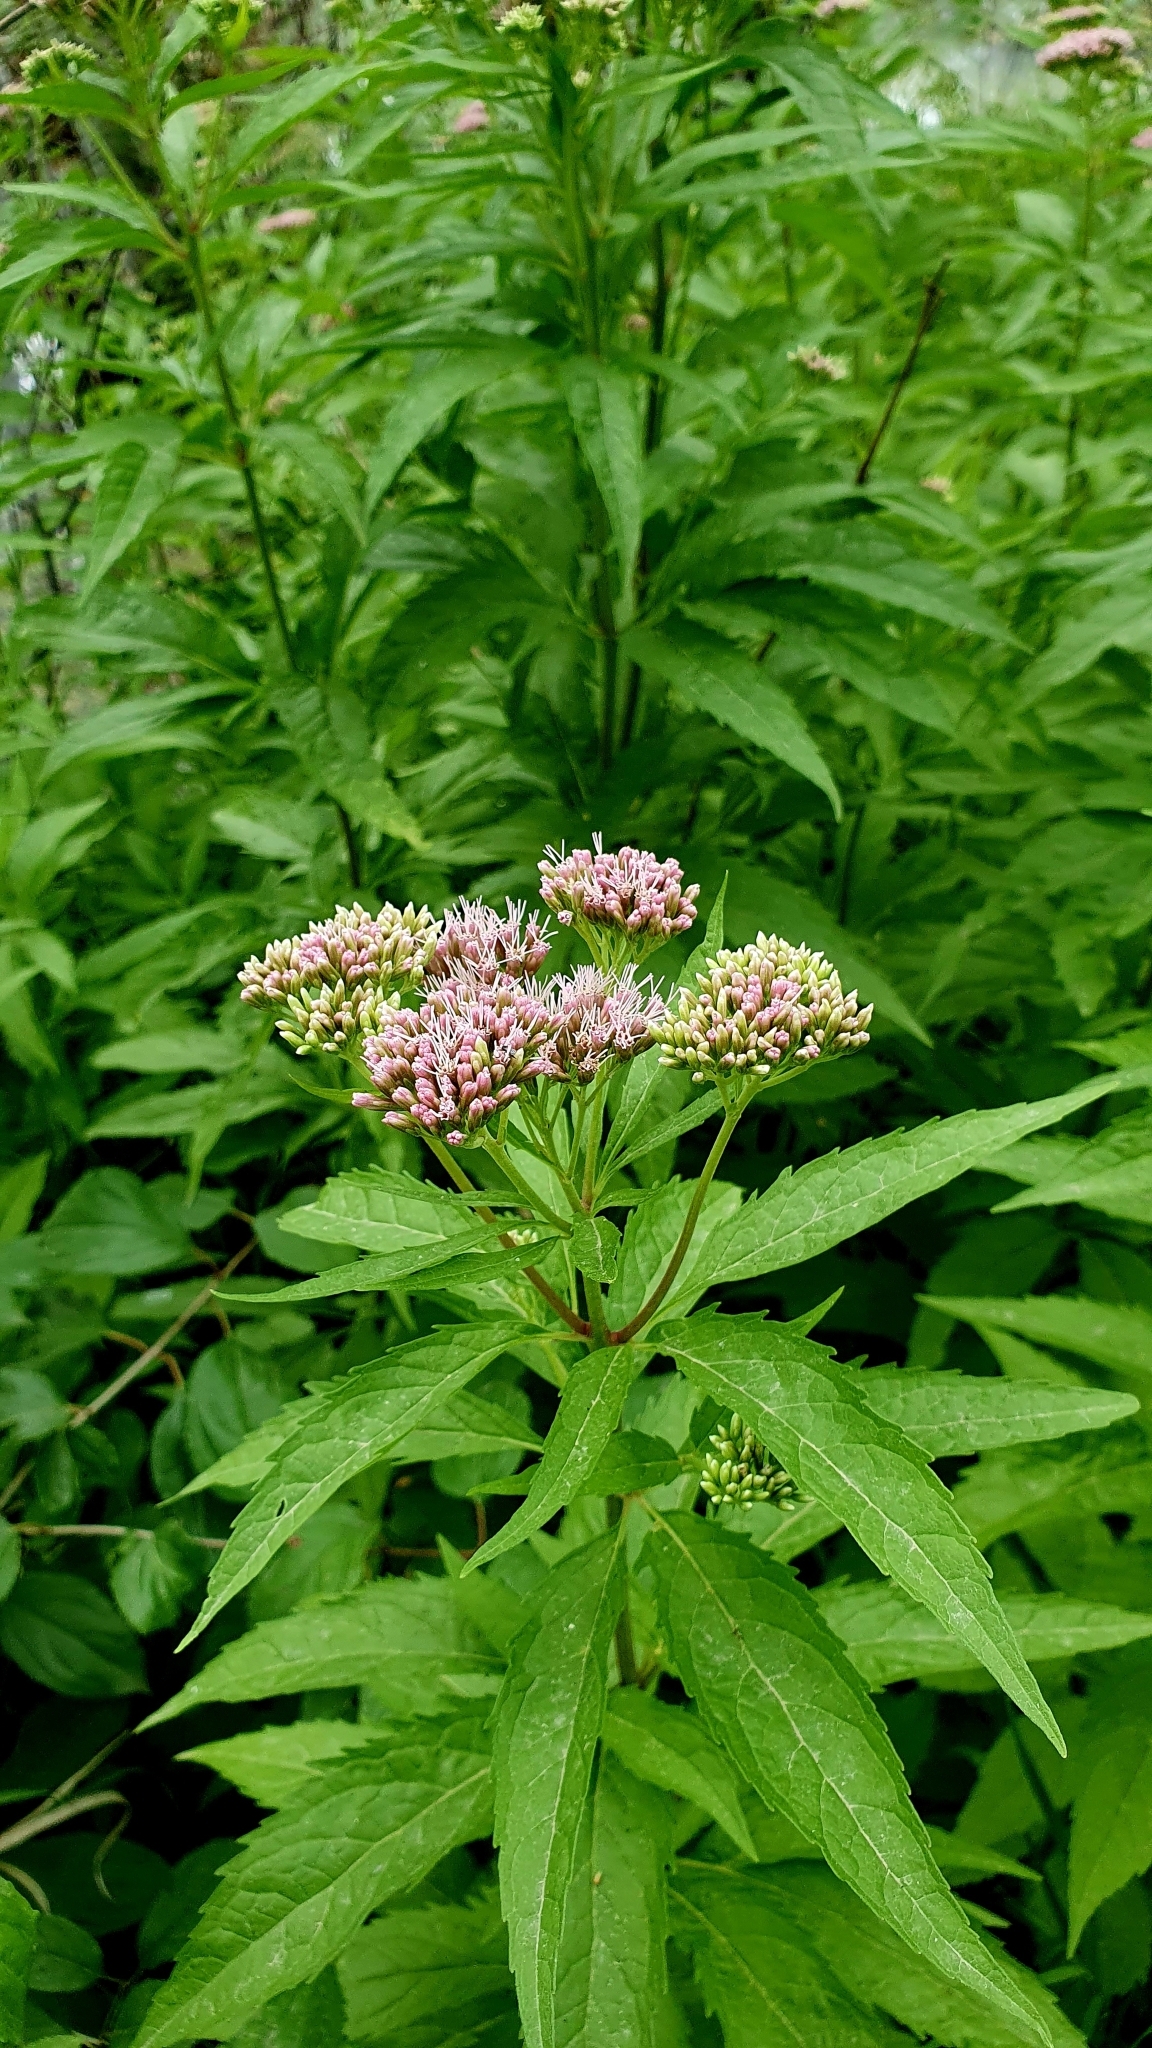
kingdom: Plantae
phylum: Tracheophyta
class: Magnoliopsida
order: Asterales
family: Asteraceae
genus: Eupatorium
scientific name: Eupatorium cannabinum
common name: Hemp-agrimony
